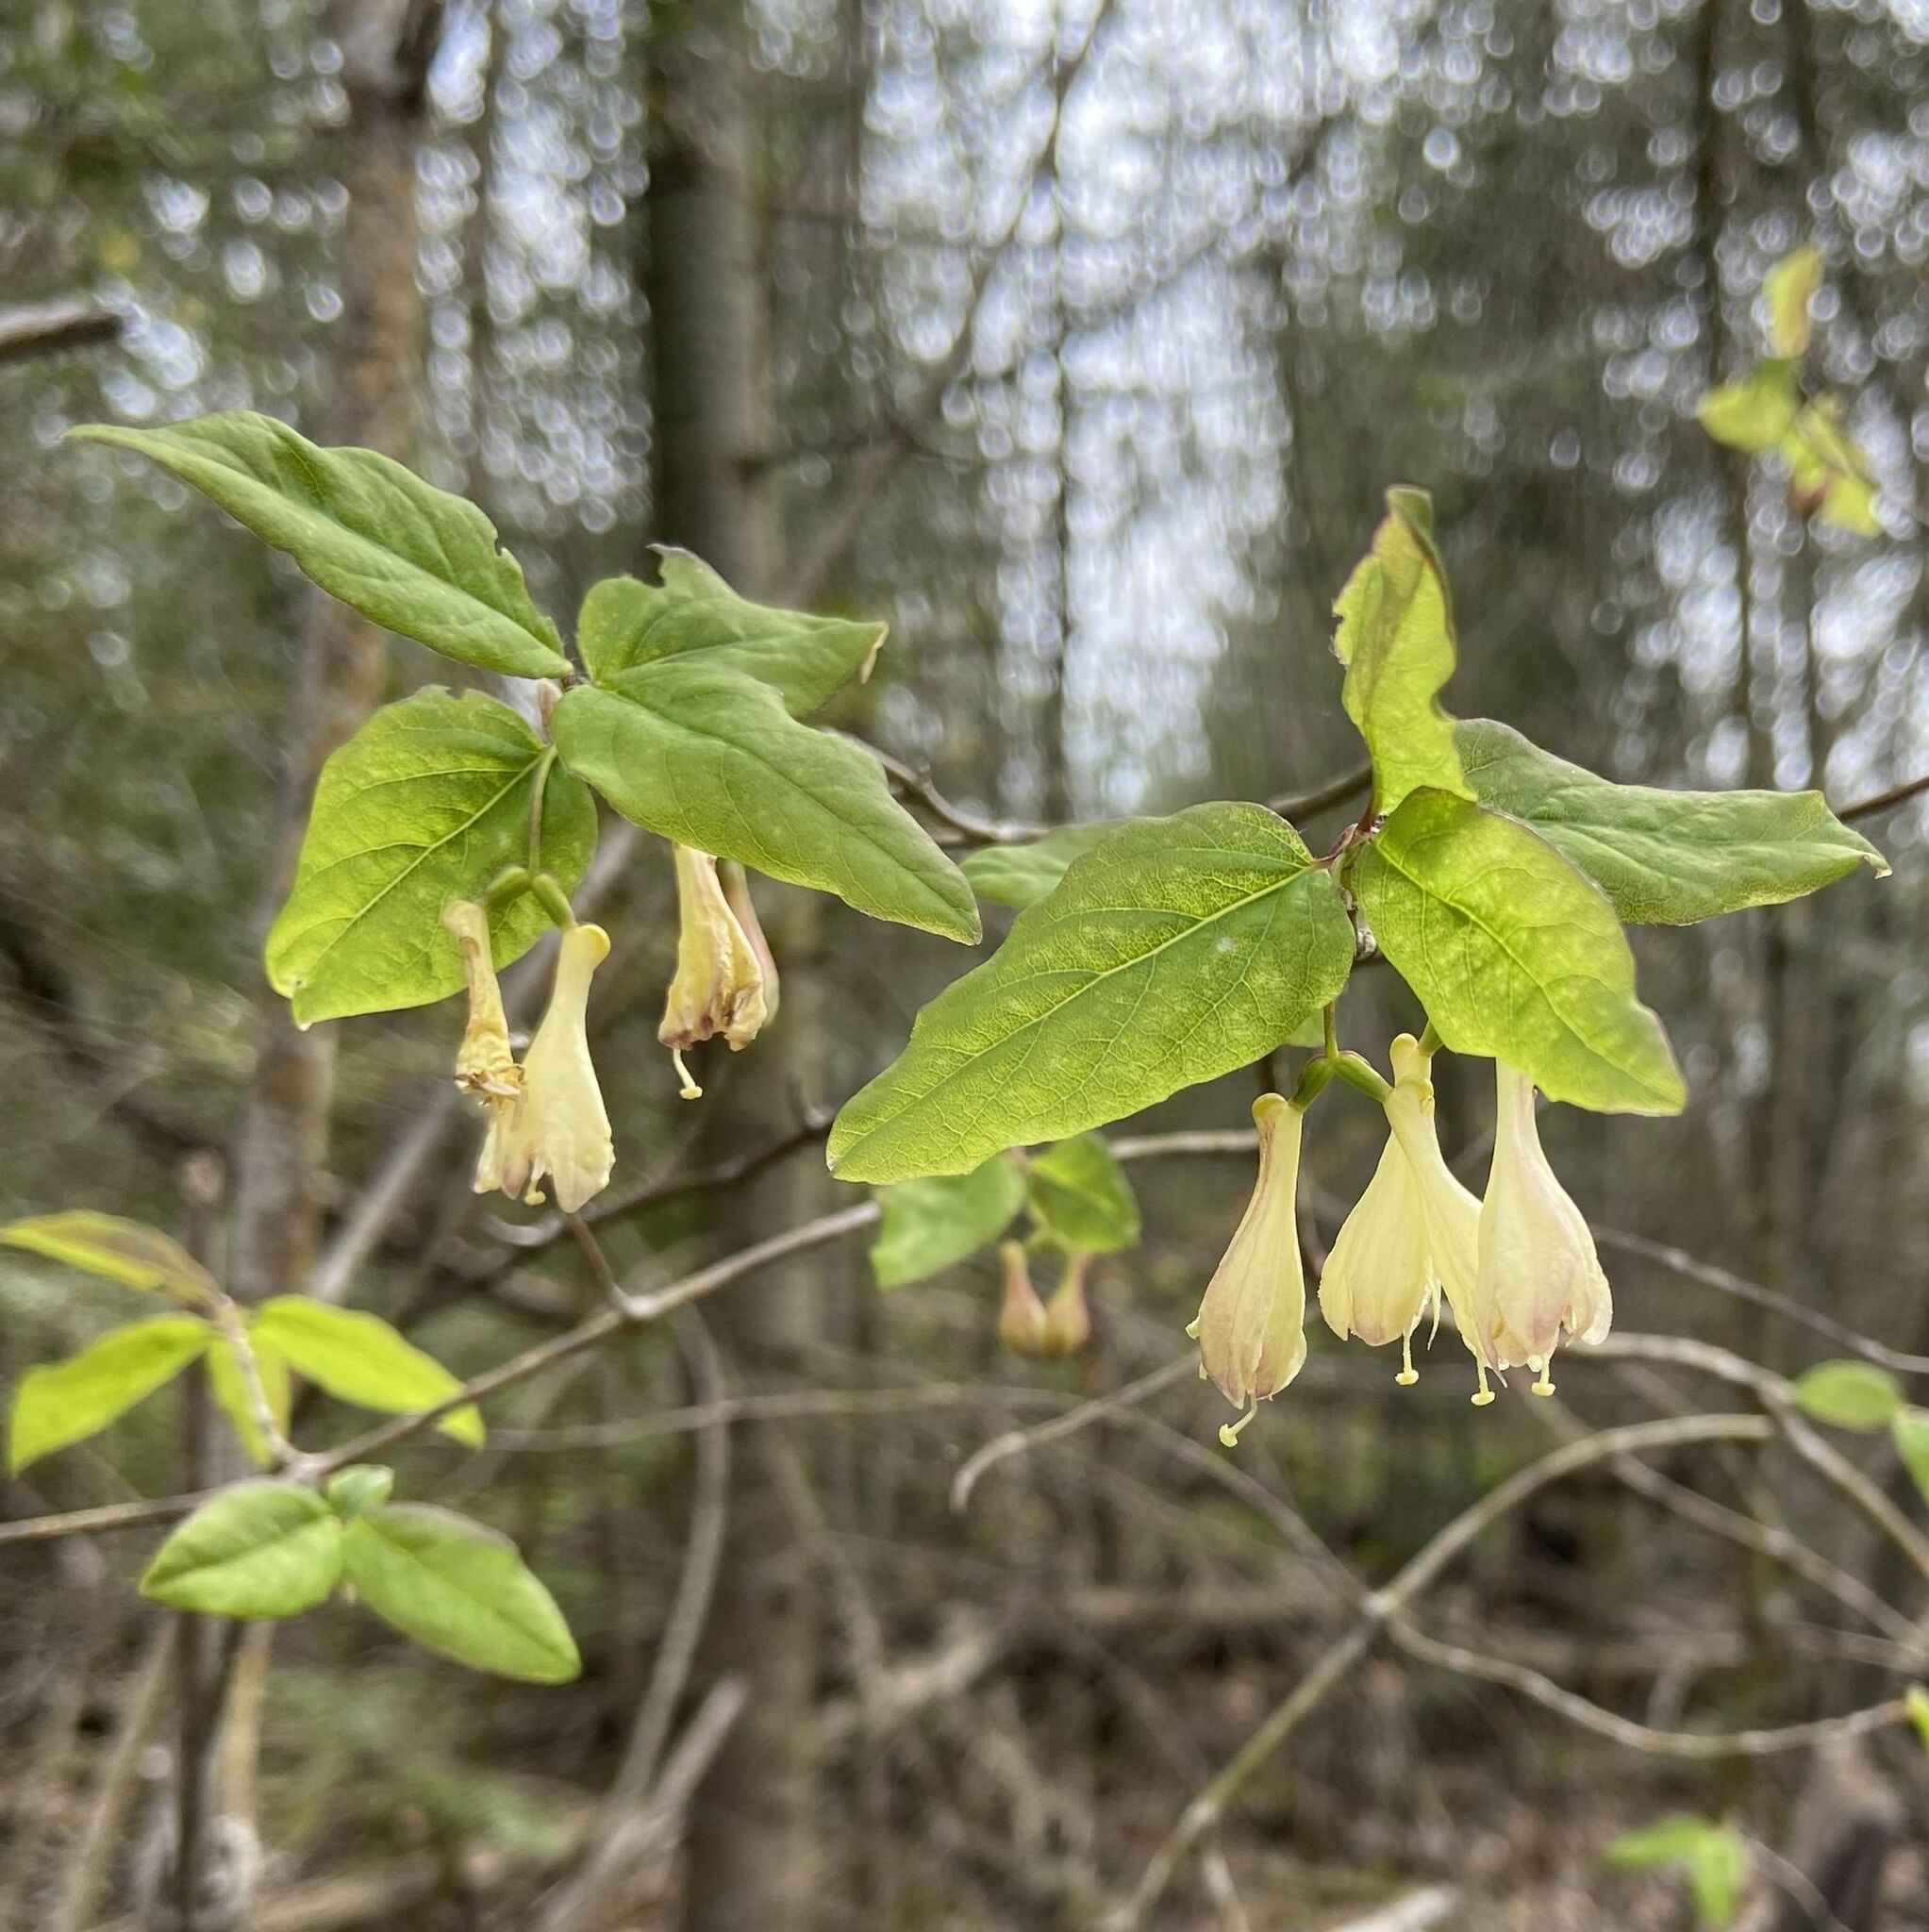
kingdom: Plantae
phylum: Tracheophyta
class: Magnoliopsida
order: Dipsacales
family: Caprifoliaceae
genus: Lonicera
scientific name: Lonicera canadensis
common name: American fly-honeysuckle
